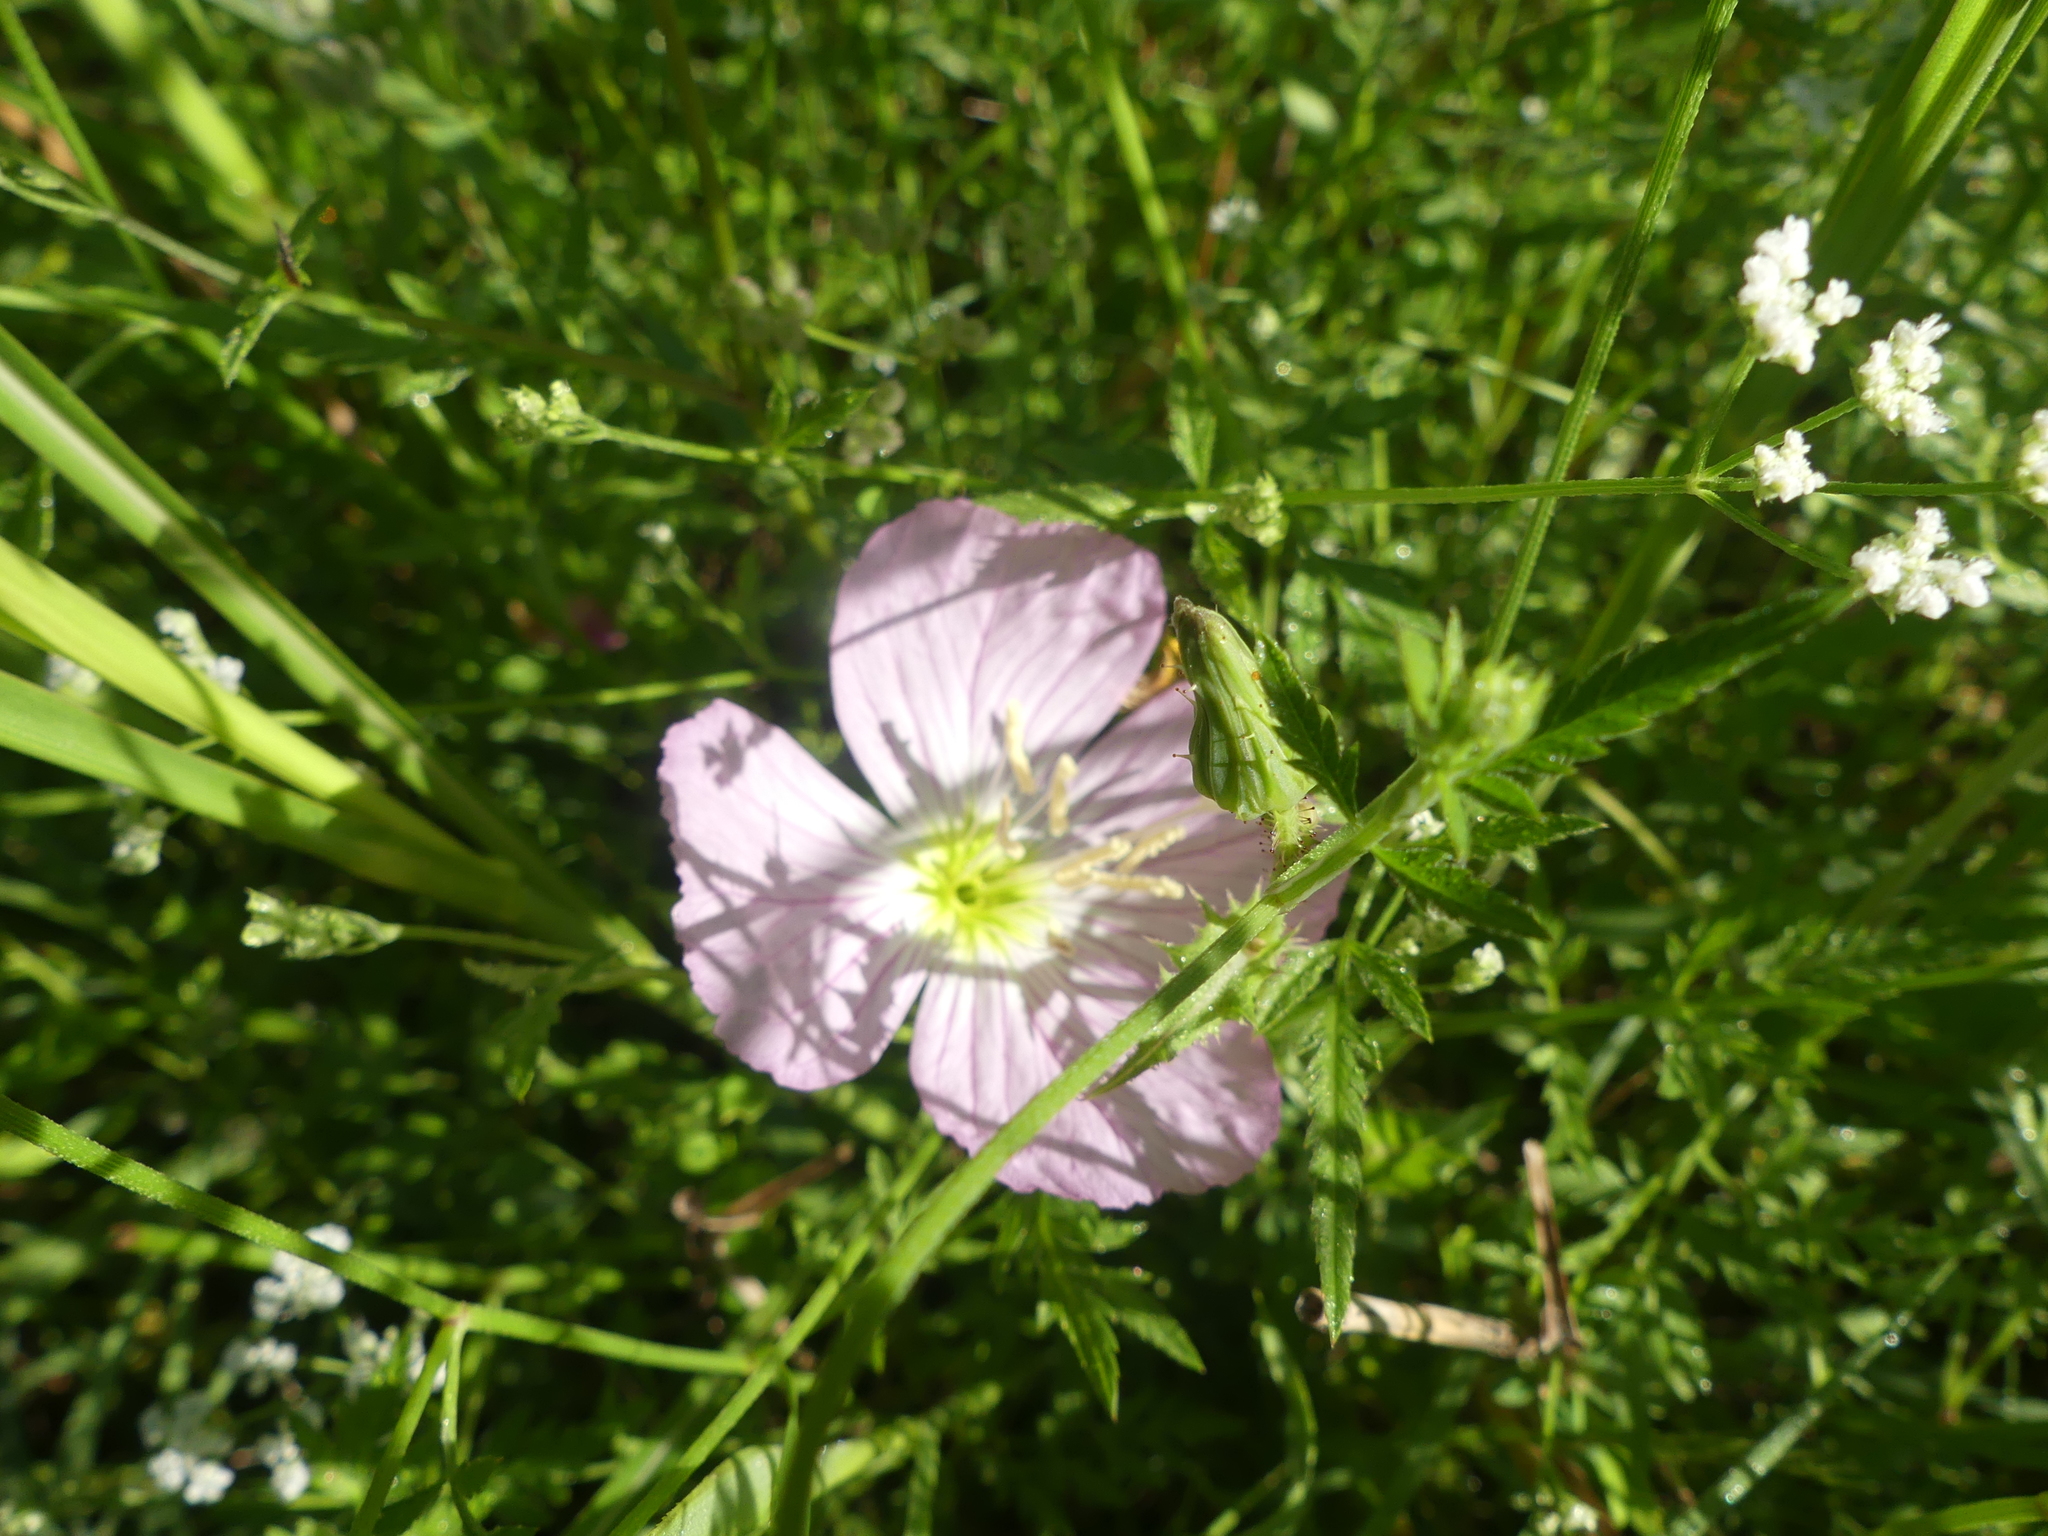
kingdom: Plantae
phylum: Tracheophyta
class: Magnoliopsida
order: Myrtales
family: Onagraceae
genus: Oenothera
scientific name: Oenothera speciosa
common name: White evening-primrose
